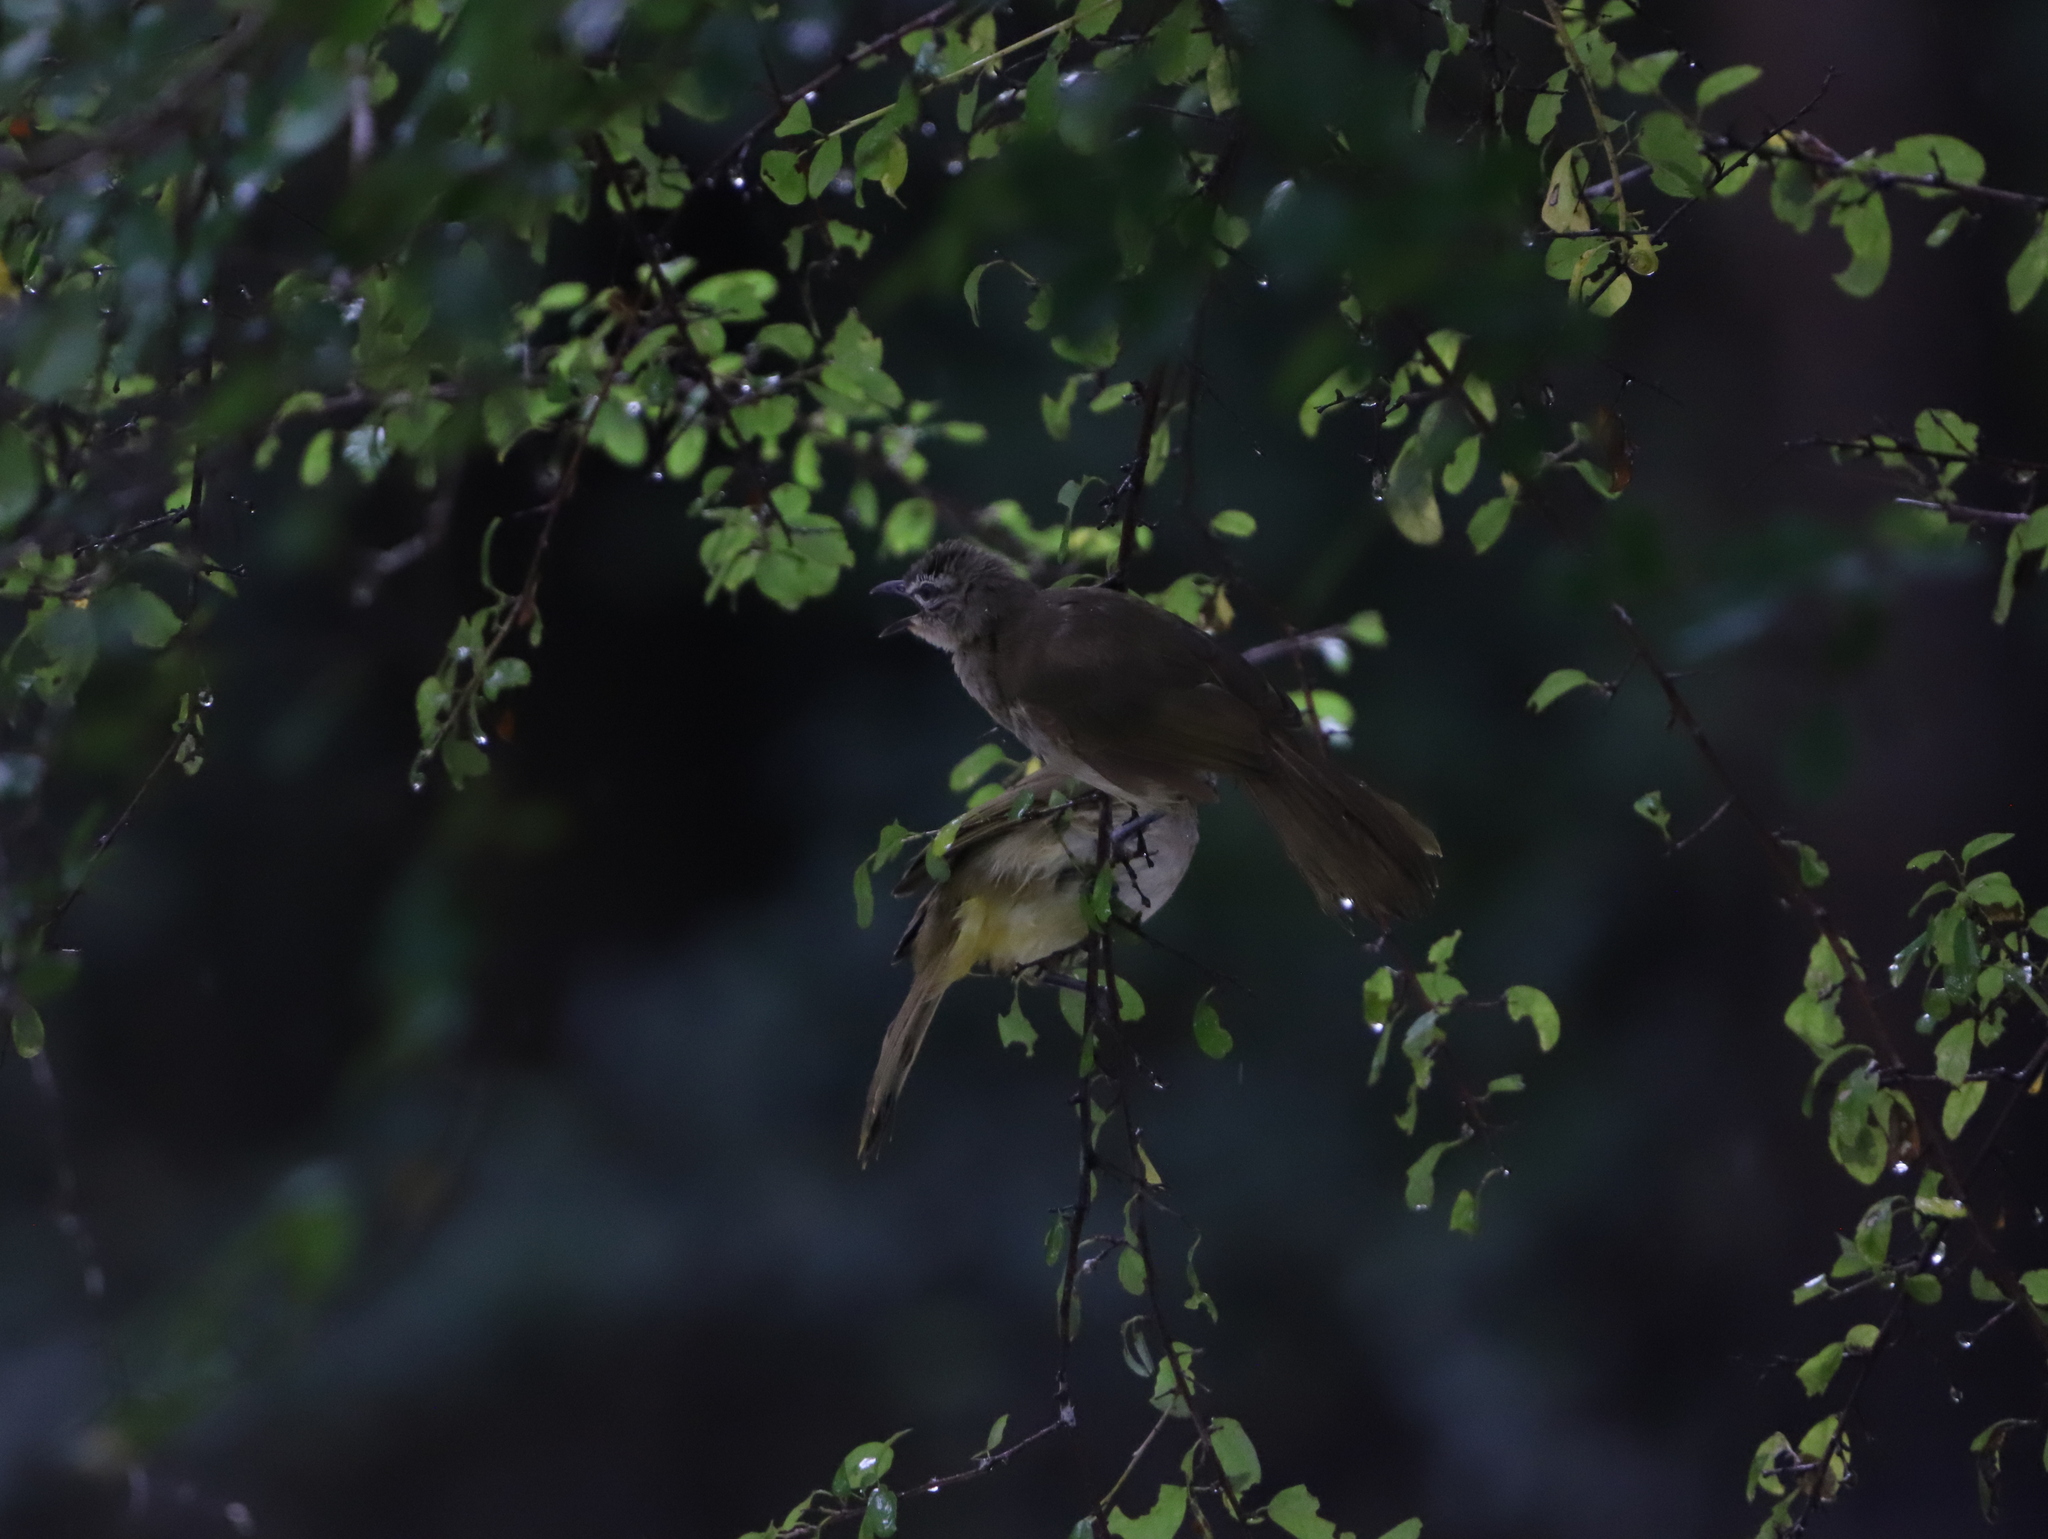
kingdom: Animalia
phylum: Chordata
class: Aves
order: Passeriformes
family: Pycnonotidae
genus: Pycnonotus
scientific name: Pycnonotus luteolus
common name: White-browed bulbul
